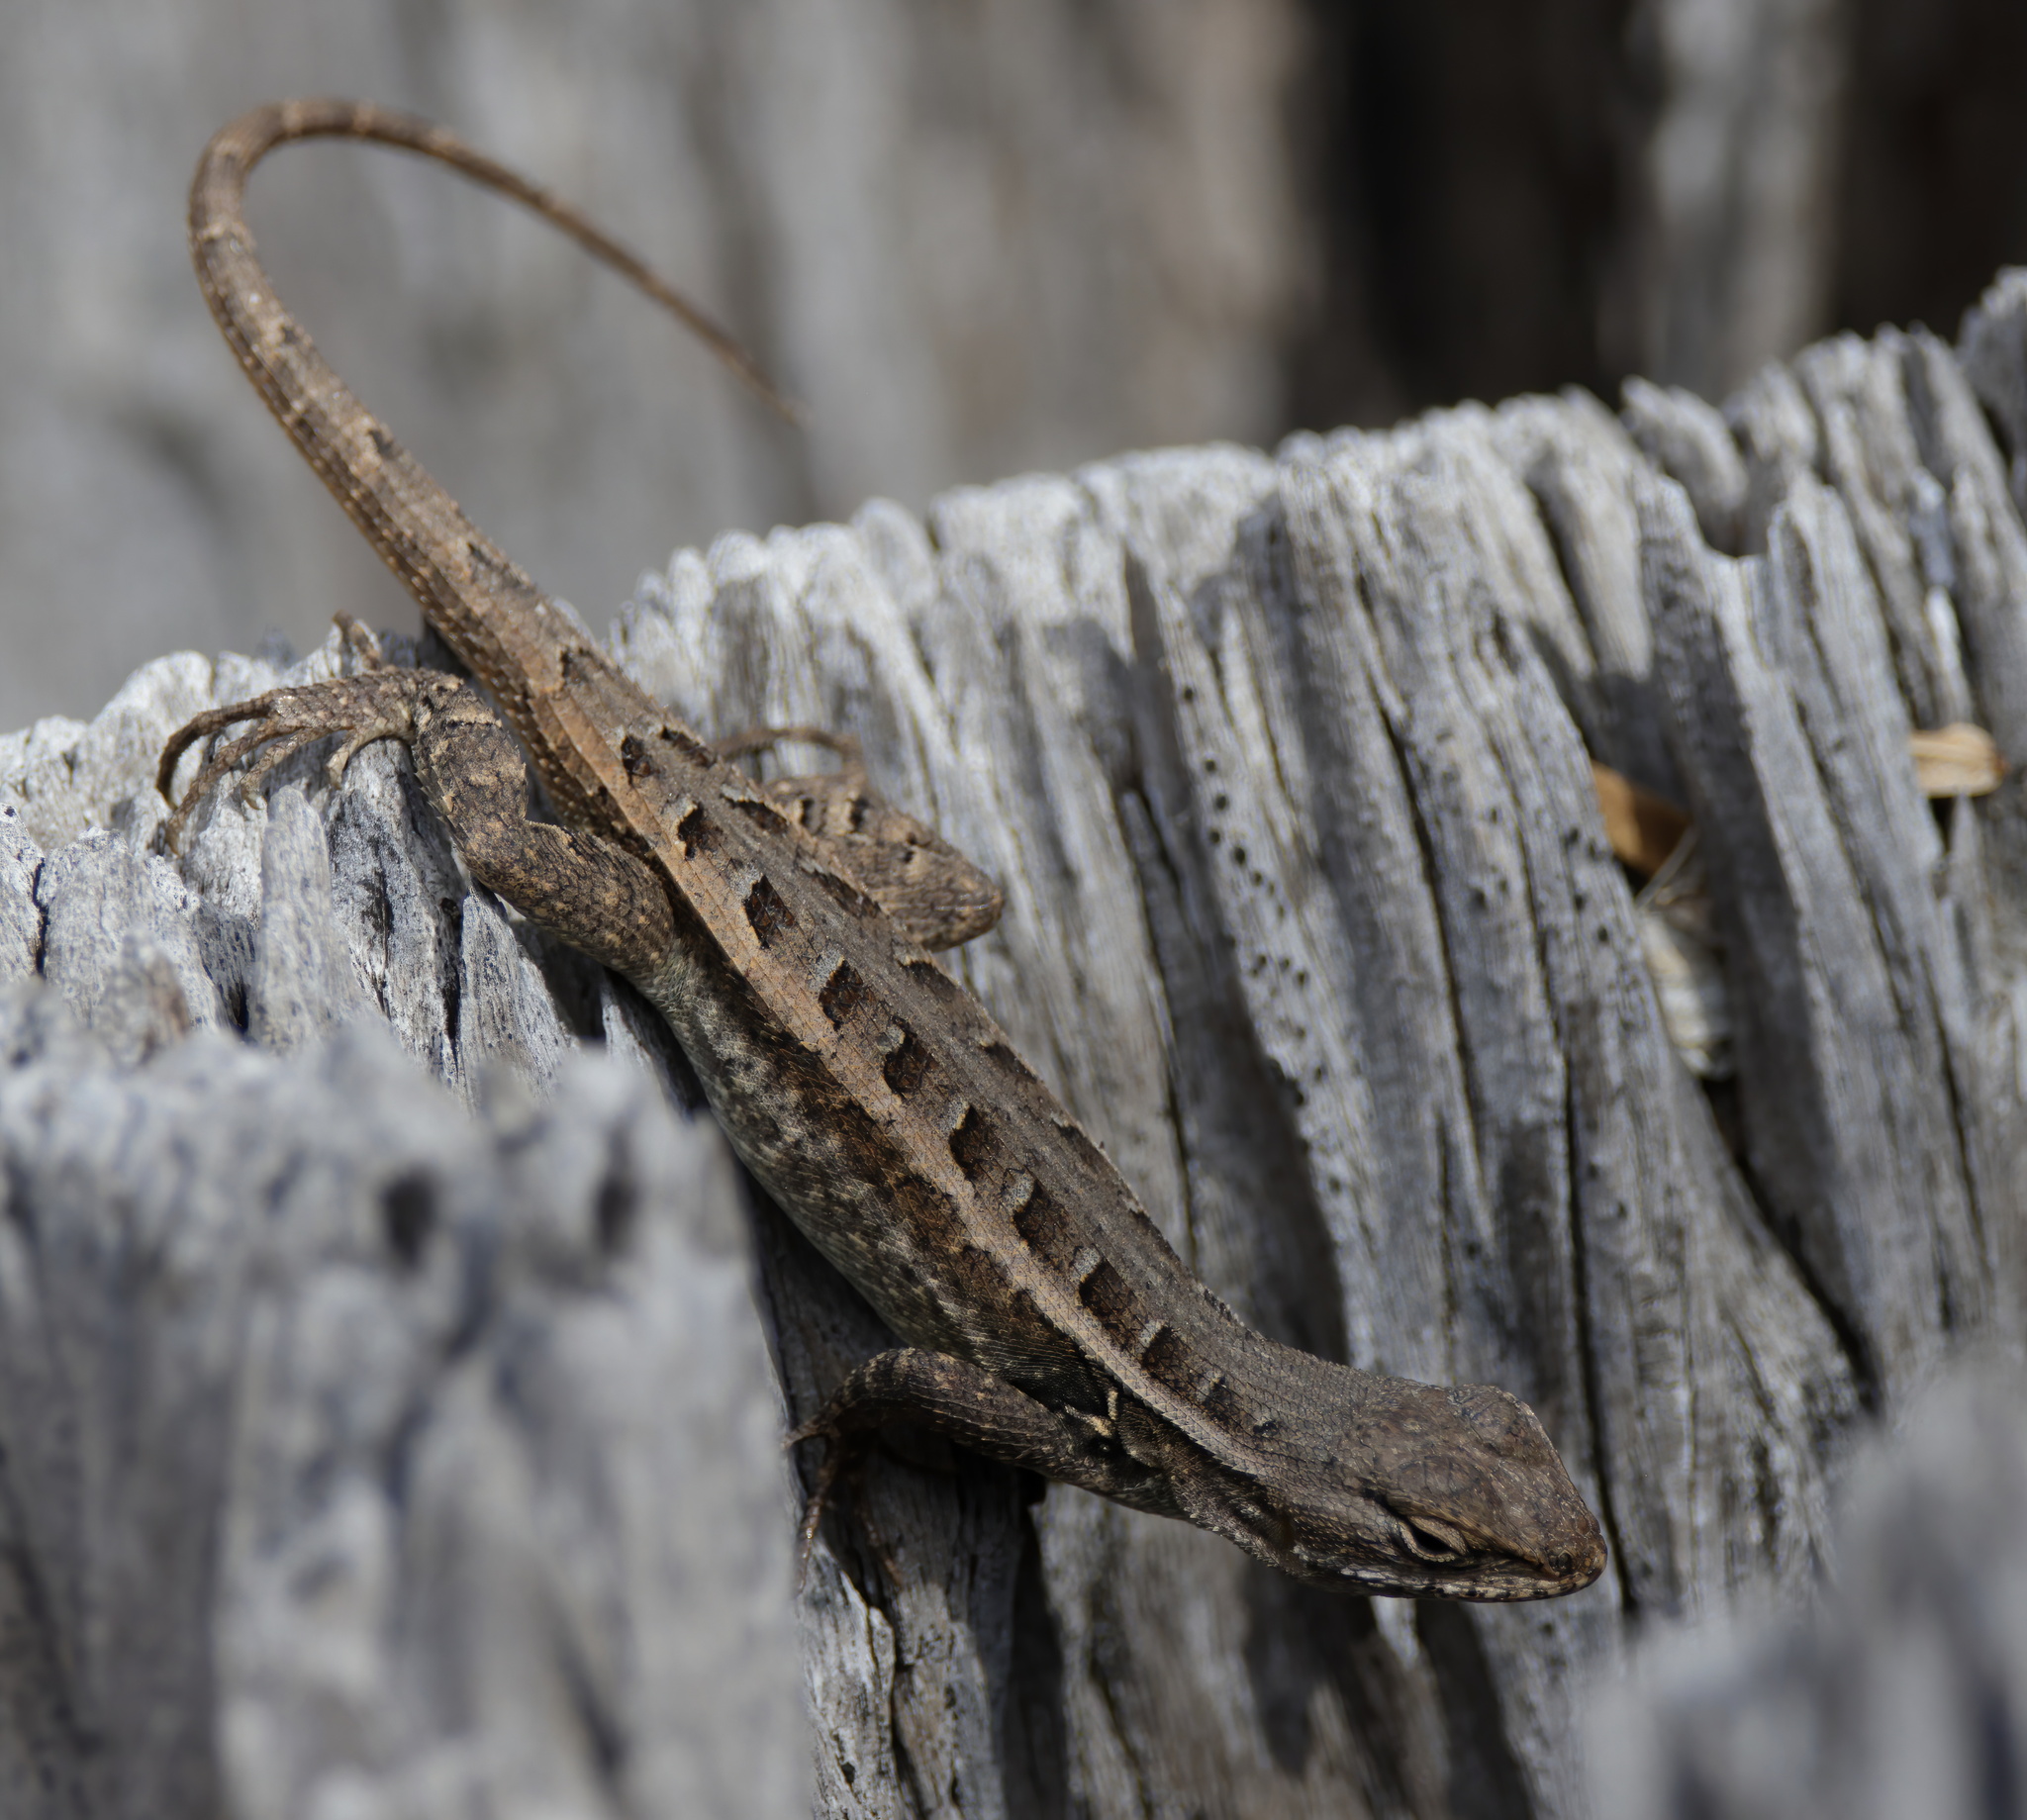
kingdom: Animalia
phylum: Chordata
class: Squamata
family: Phrynosomatidae
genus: Sceloporus
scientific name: Sceloporus variabilis
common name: Rosebelly lizard
